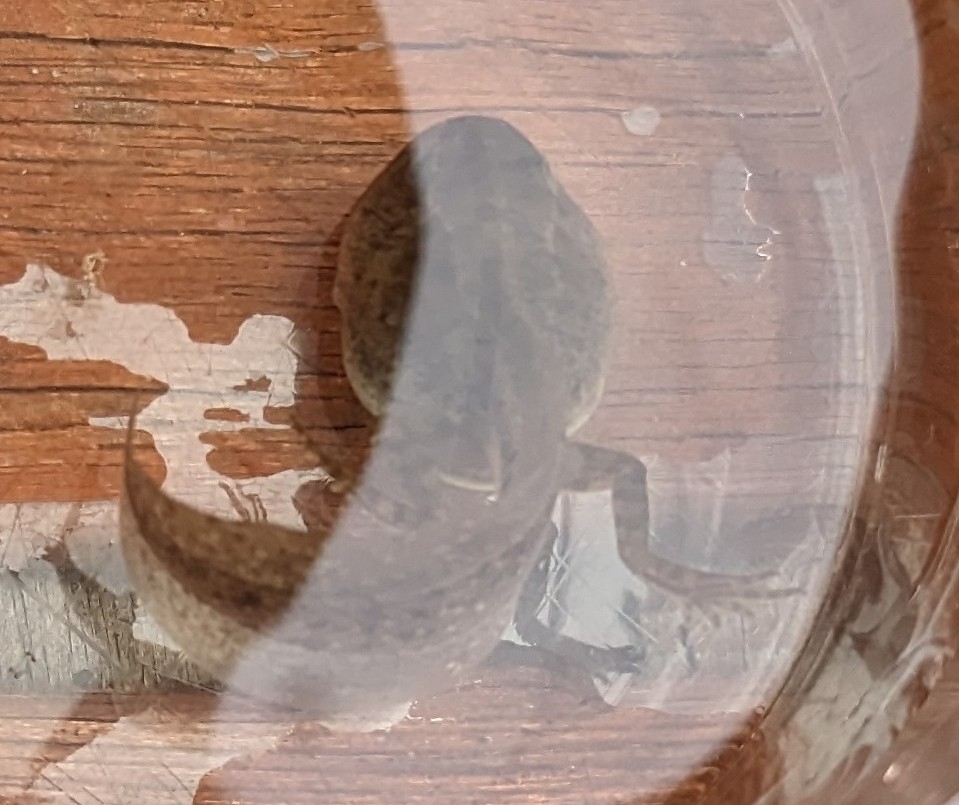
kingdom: Animalia
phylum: Chordata
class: Amphibia
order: Anura
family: Ranidae
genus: Rana
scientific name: Rana temporaria
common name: Common frog
